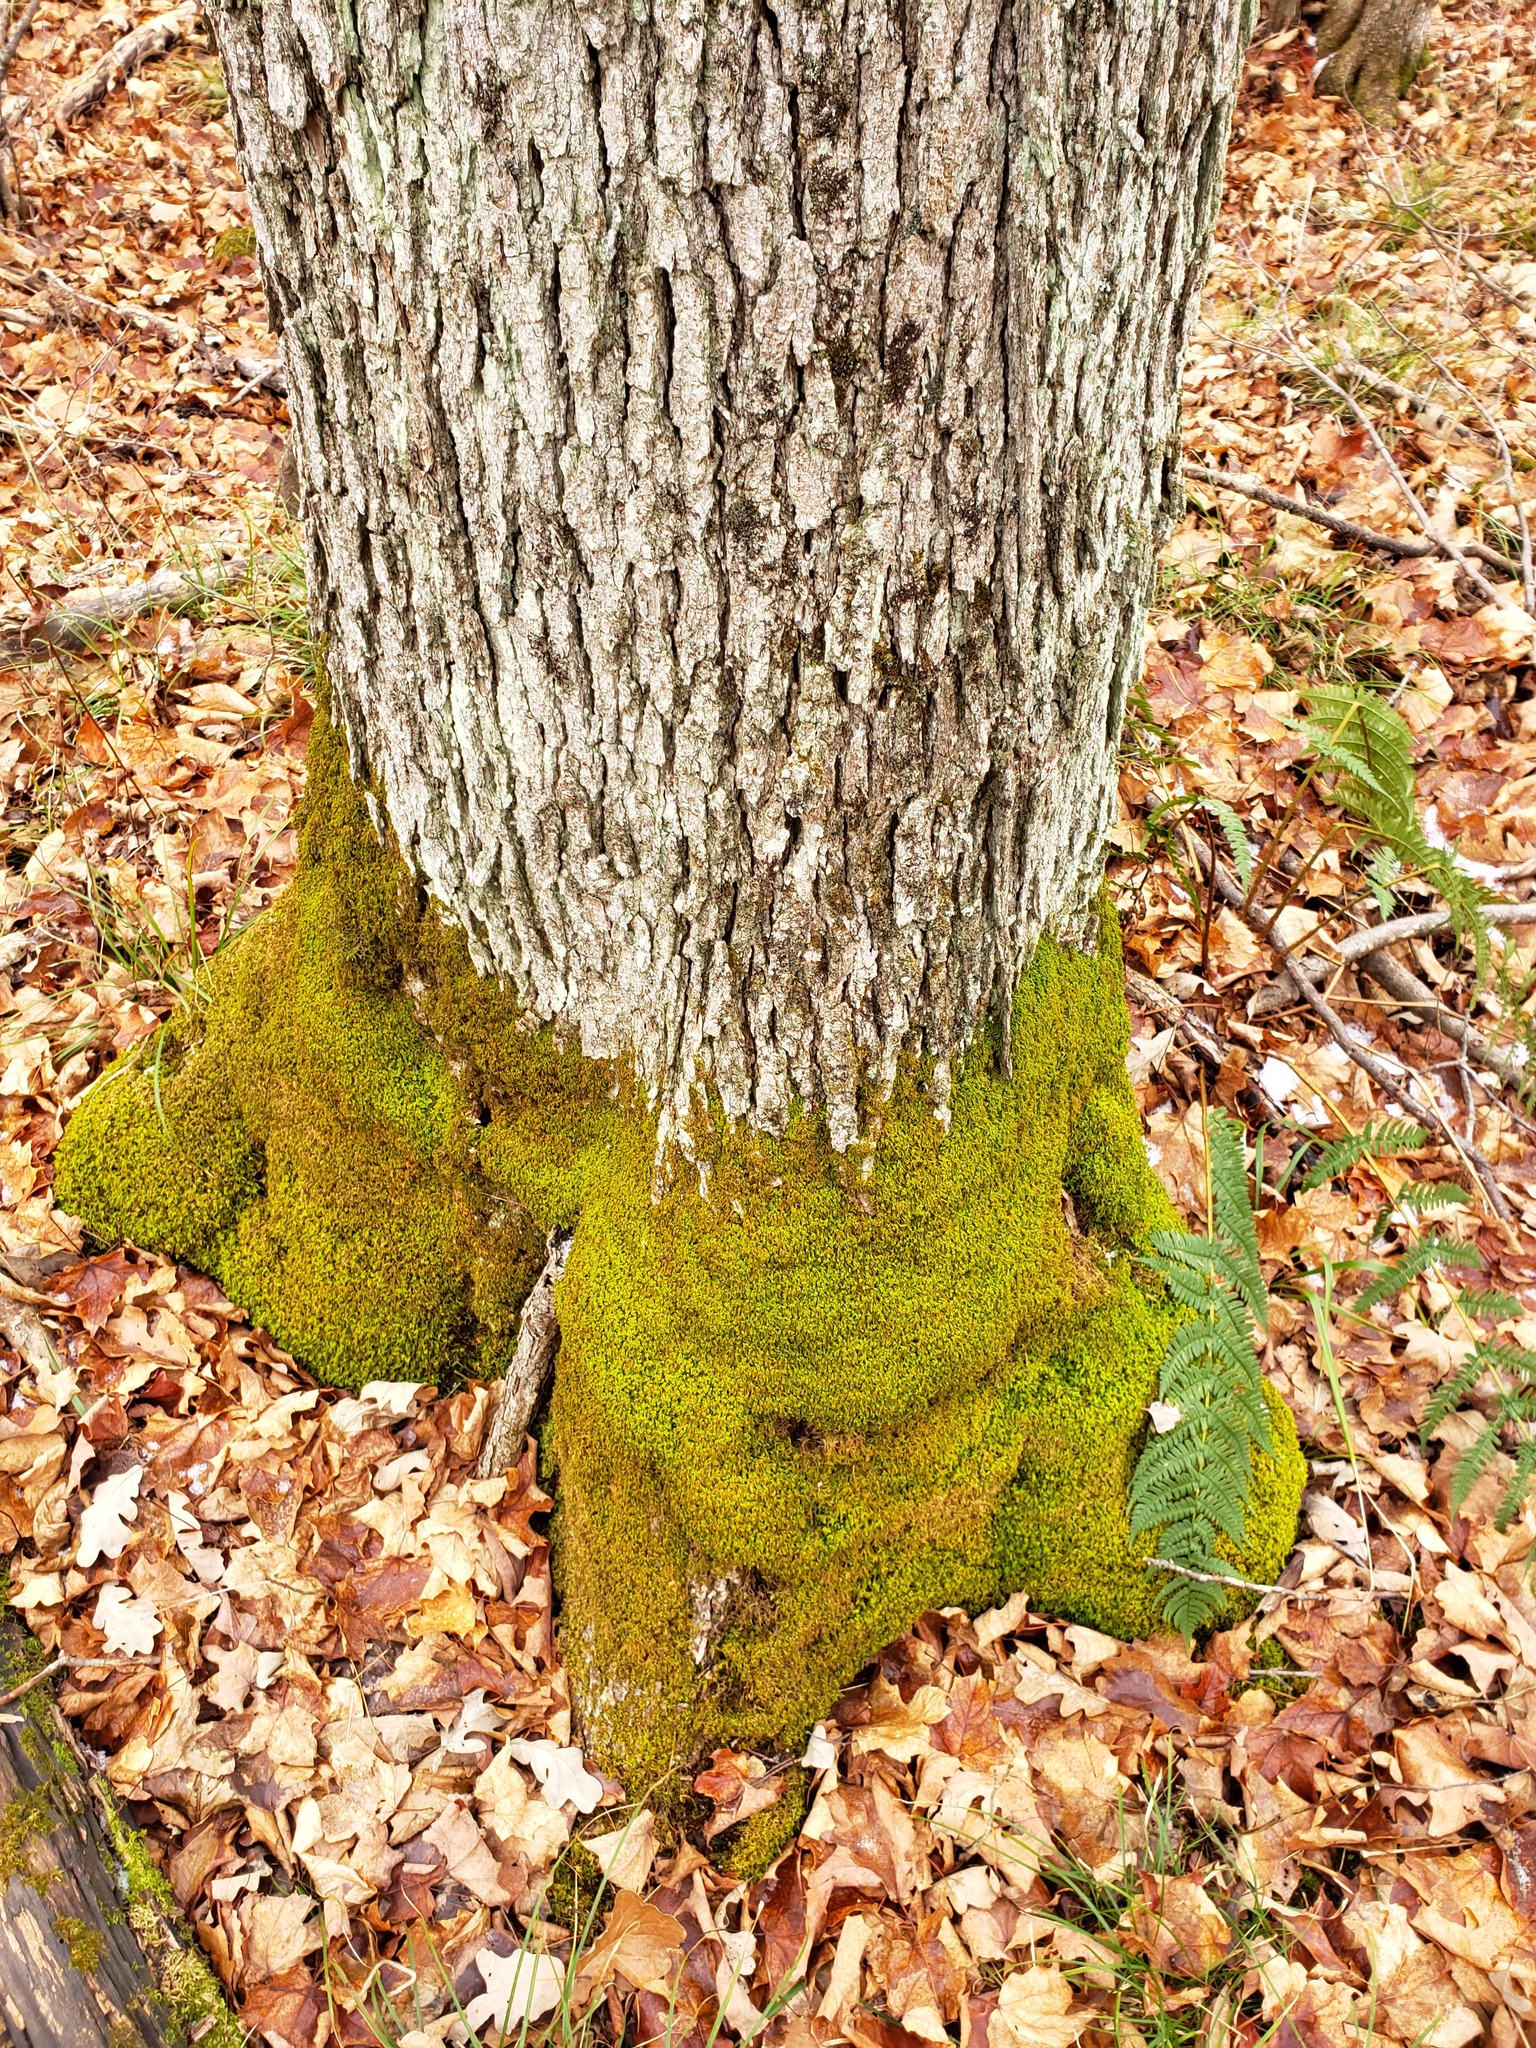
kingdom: Plantae
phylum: Bryophyta
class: Bryopsida
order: Hypnales
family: Neckeraceae
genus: Pseudanomodon
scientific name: Pseudanomodon attenuatus
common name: Tree-skirt moss
